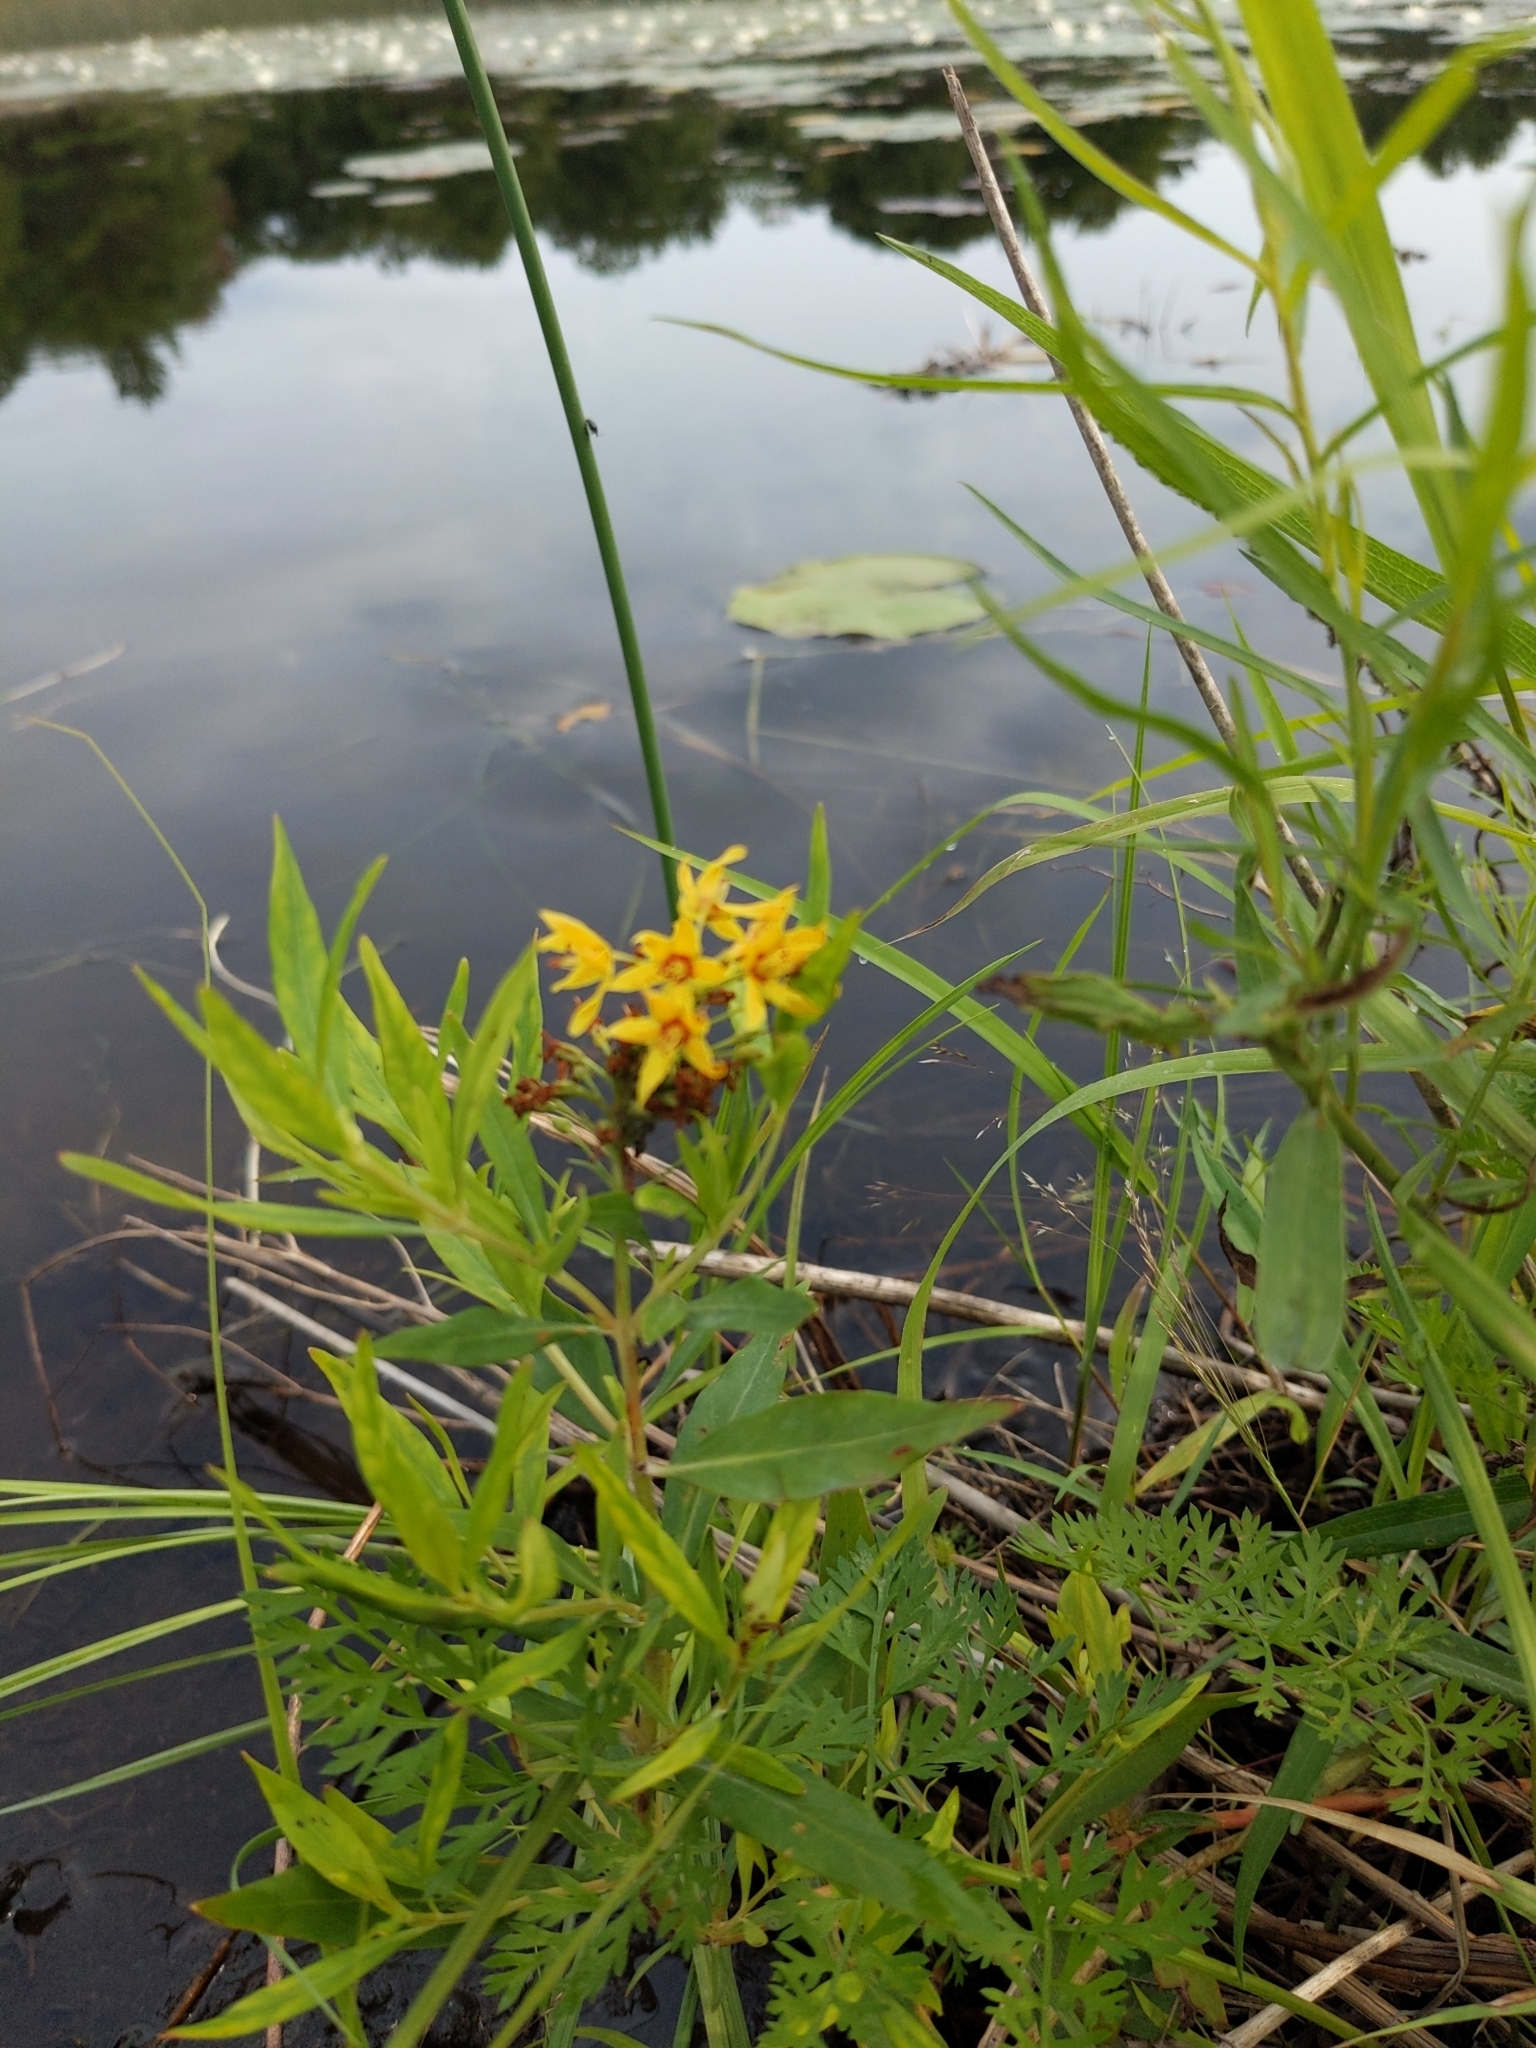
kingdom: Plantae
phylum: Tracheophyta
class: Magnoliopsida
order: Ericales
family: Primulaceae
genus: Lysimachia
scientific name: Lysimachia terrestris
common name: Lake loosestrife
